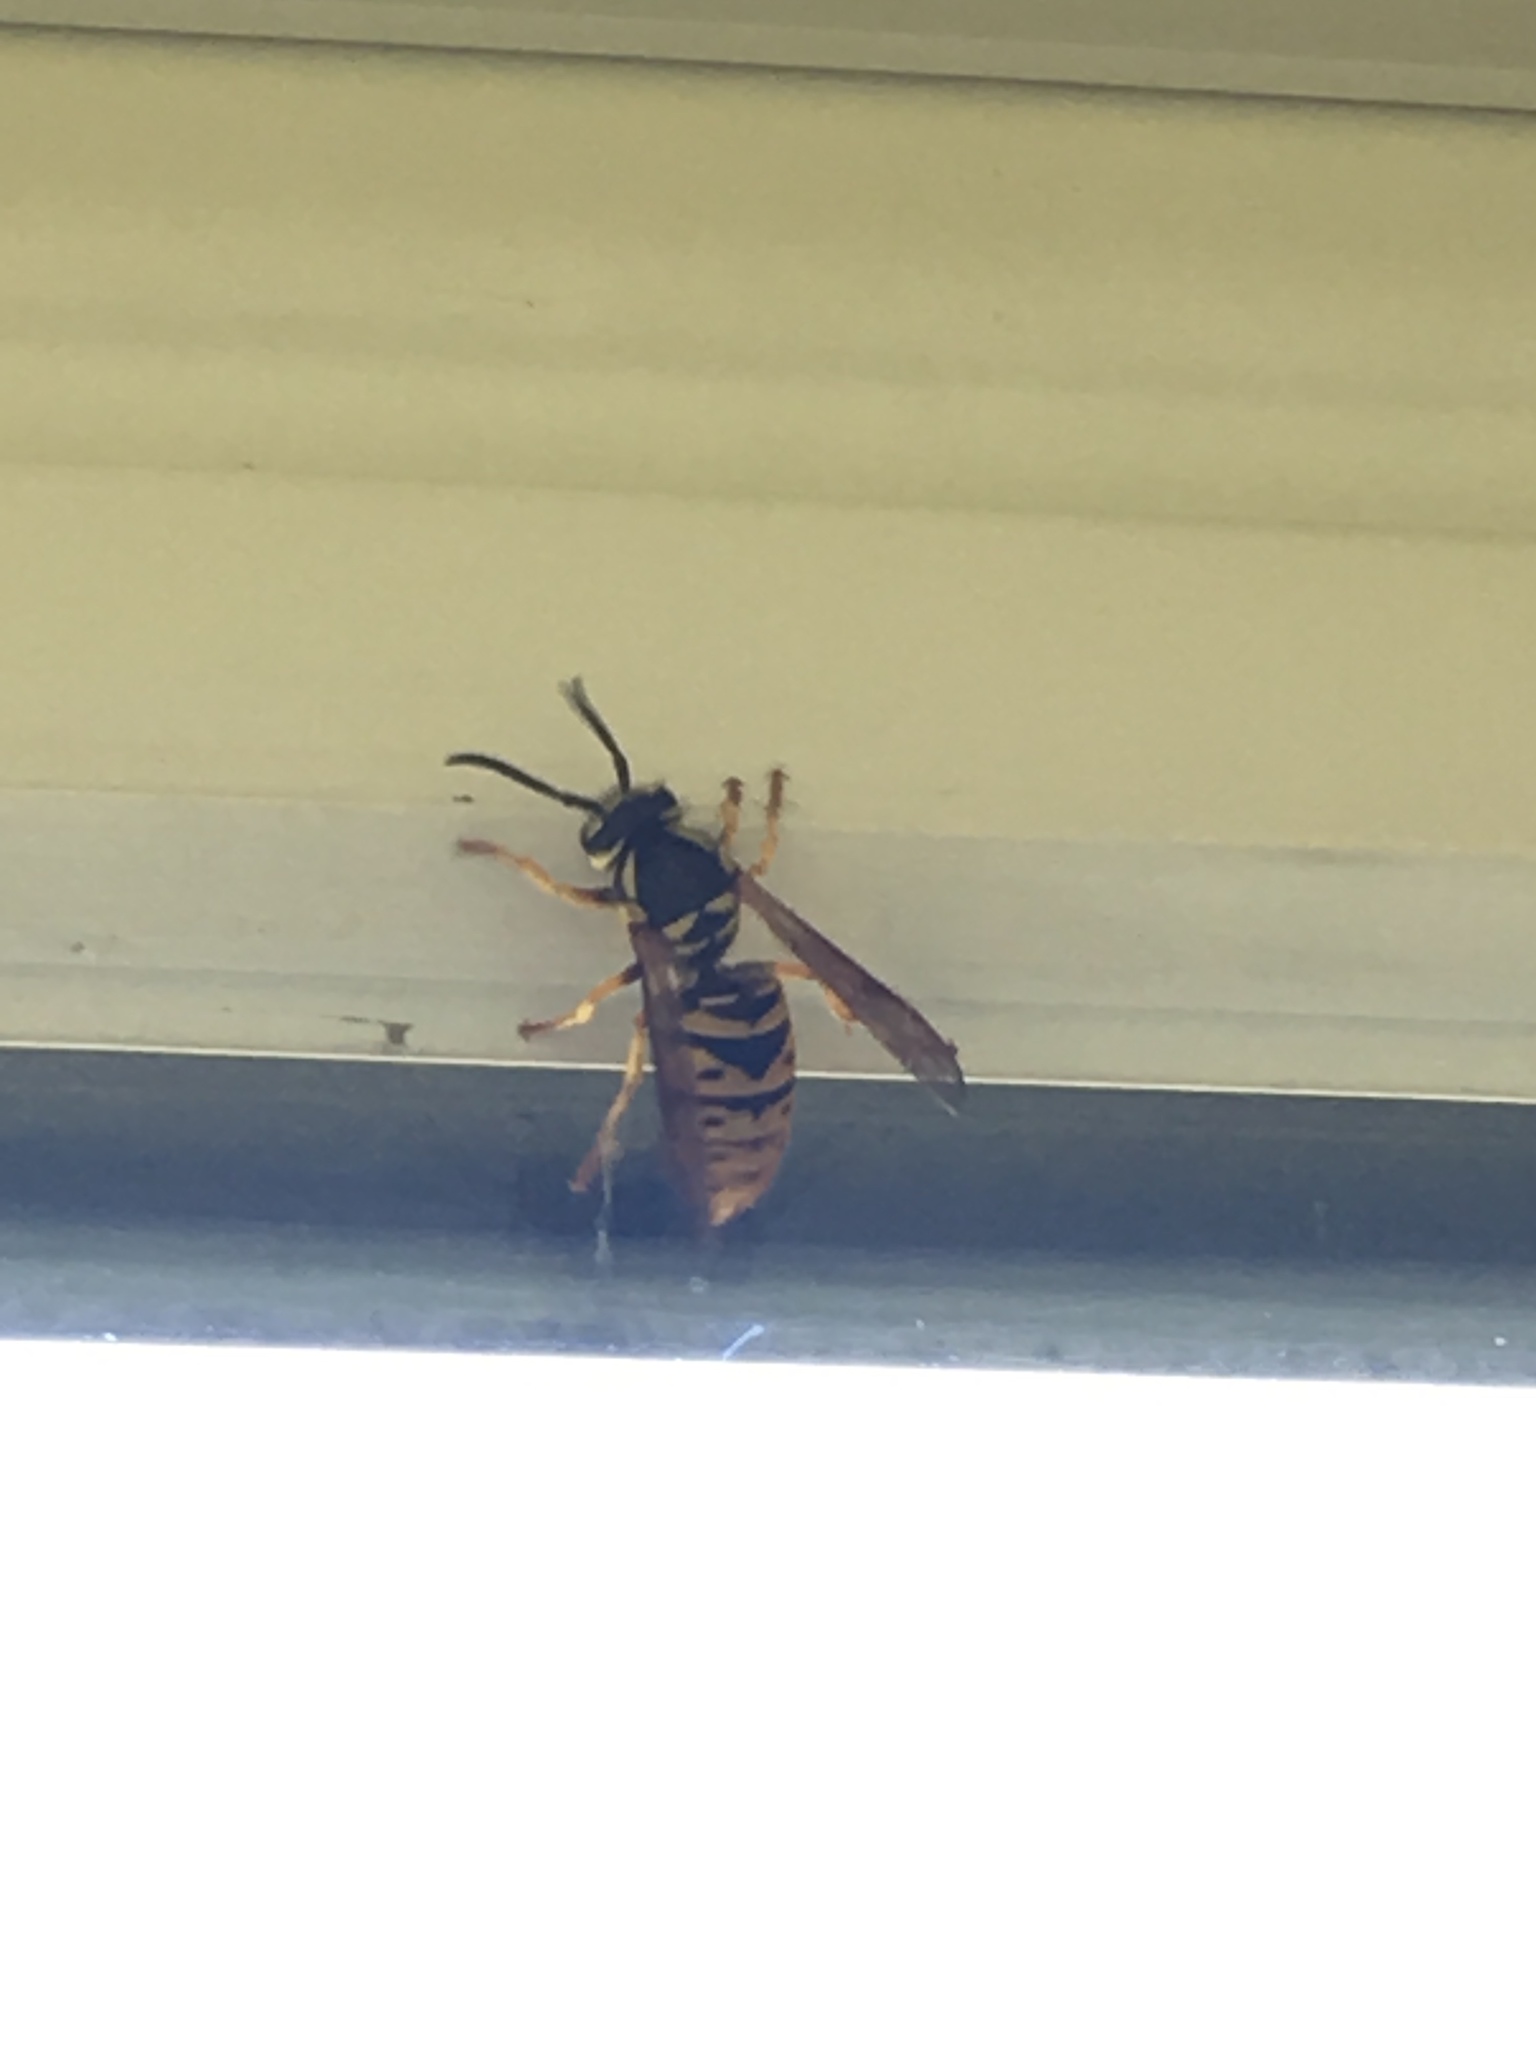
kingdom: Animalia
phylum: Arthropoda
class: Insecta
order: Hymenoptera
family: Vespidae
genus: Vespula
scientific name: Vespula maculifrons
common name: Eastern yellowjacket
